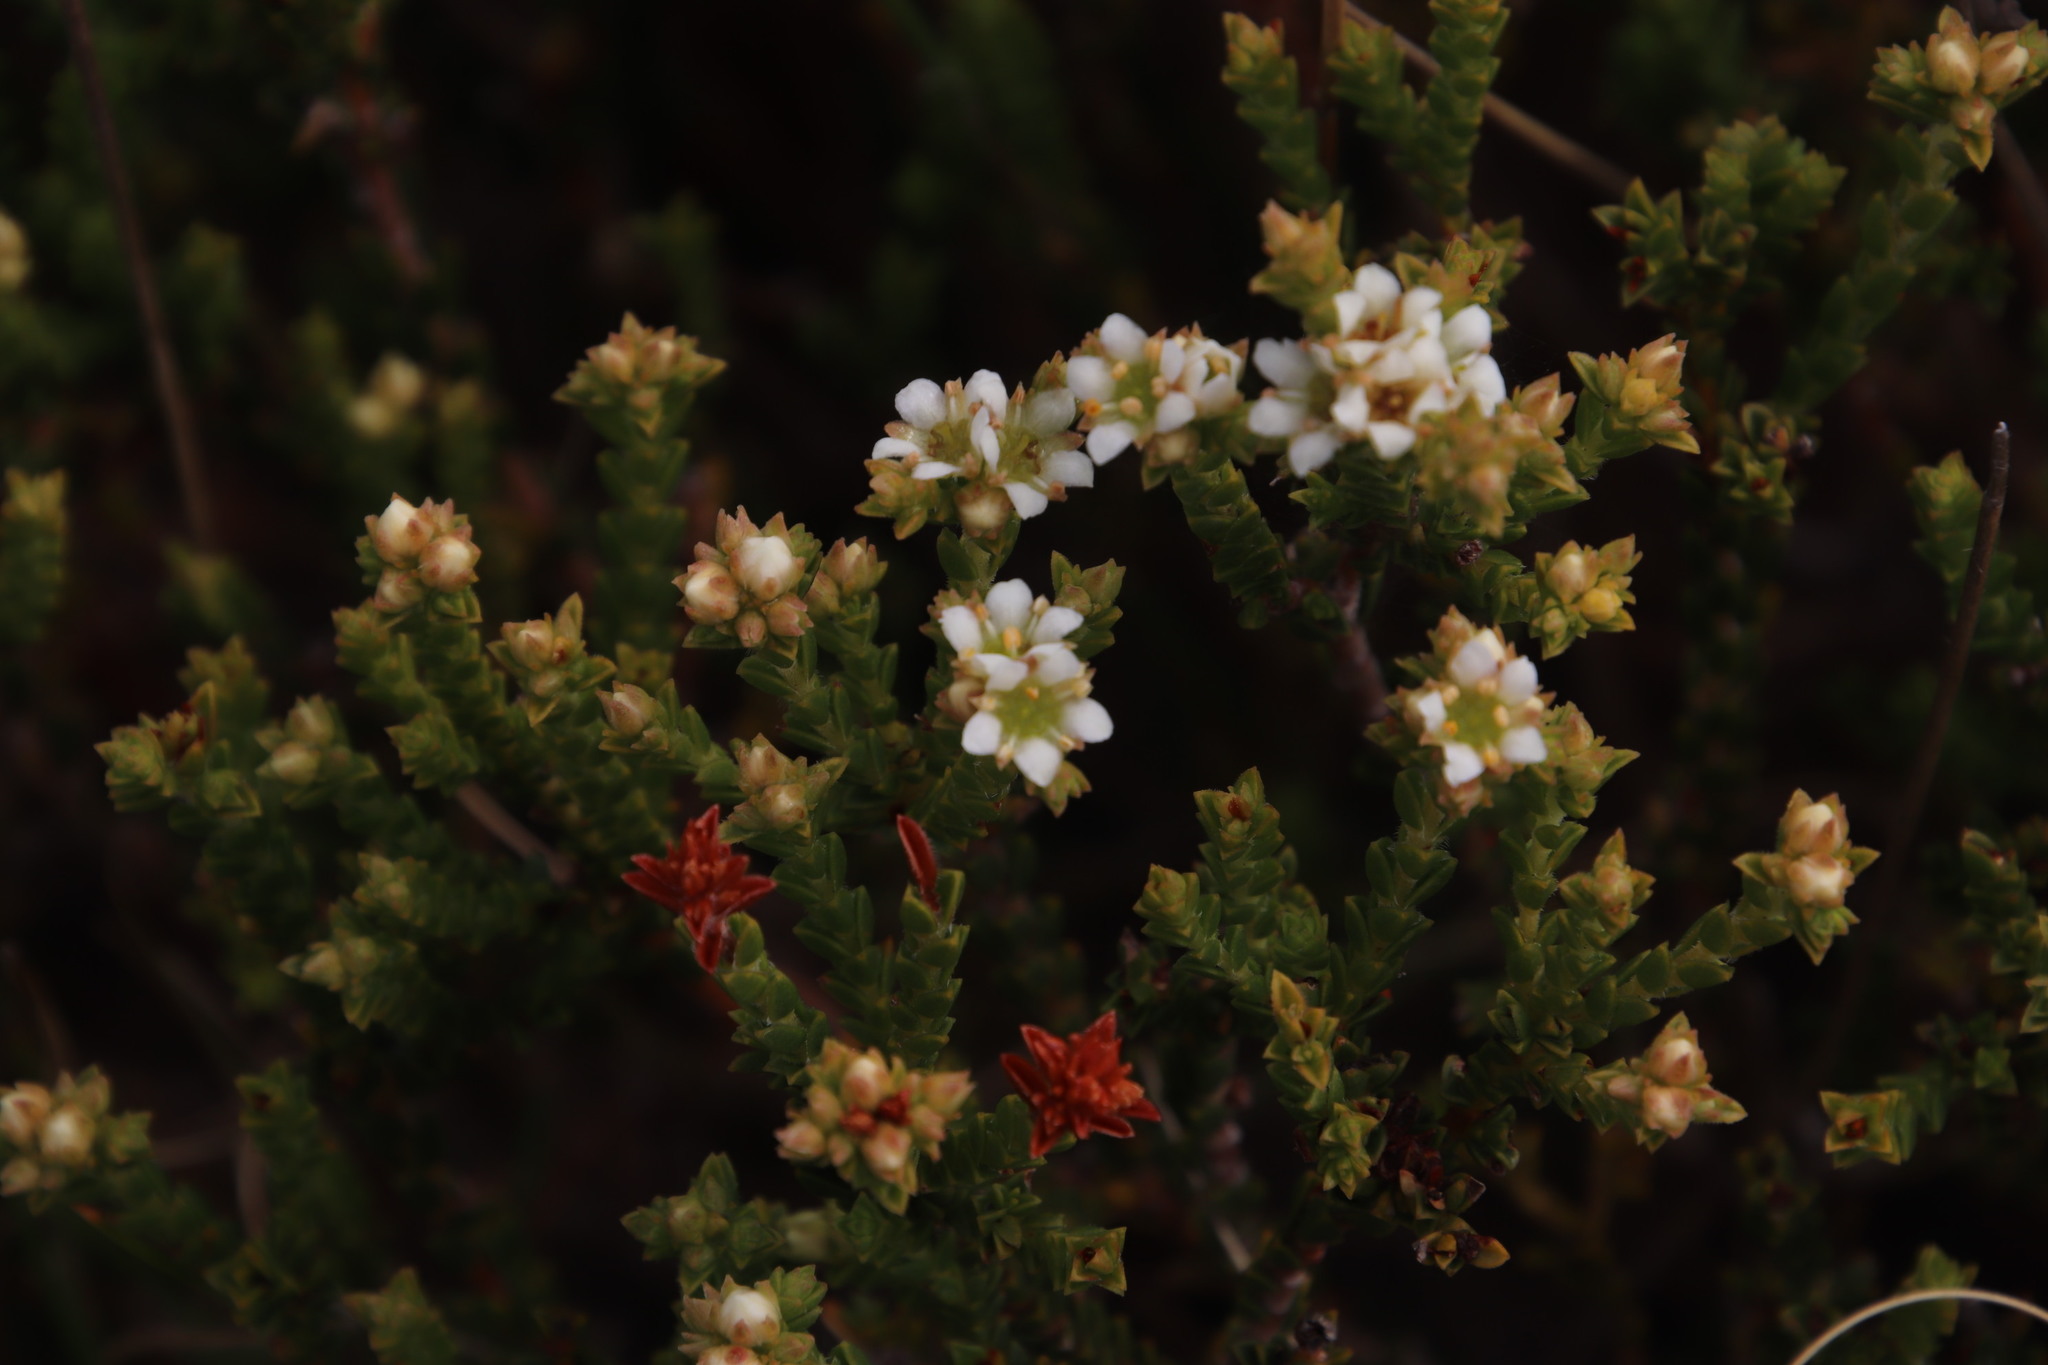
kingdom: Plantae
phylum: Tracheophyta
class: Magnoliopsida
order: Sapindales
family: Rutaceae
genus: Diosma
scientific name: Diosma oppositifolia
